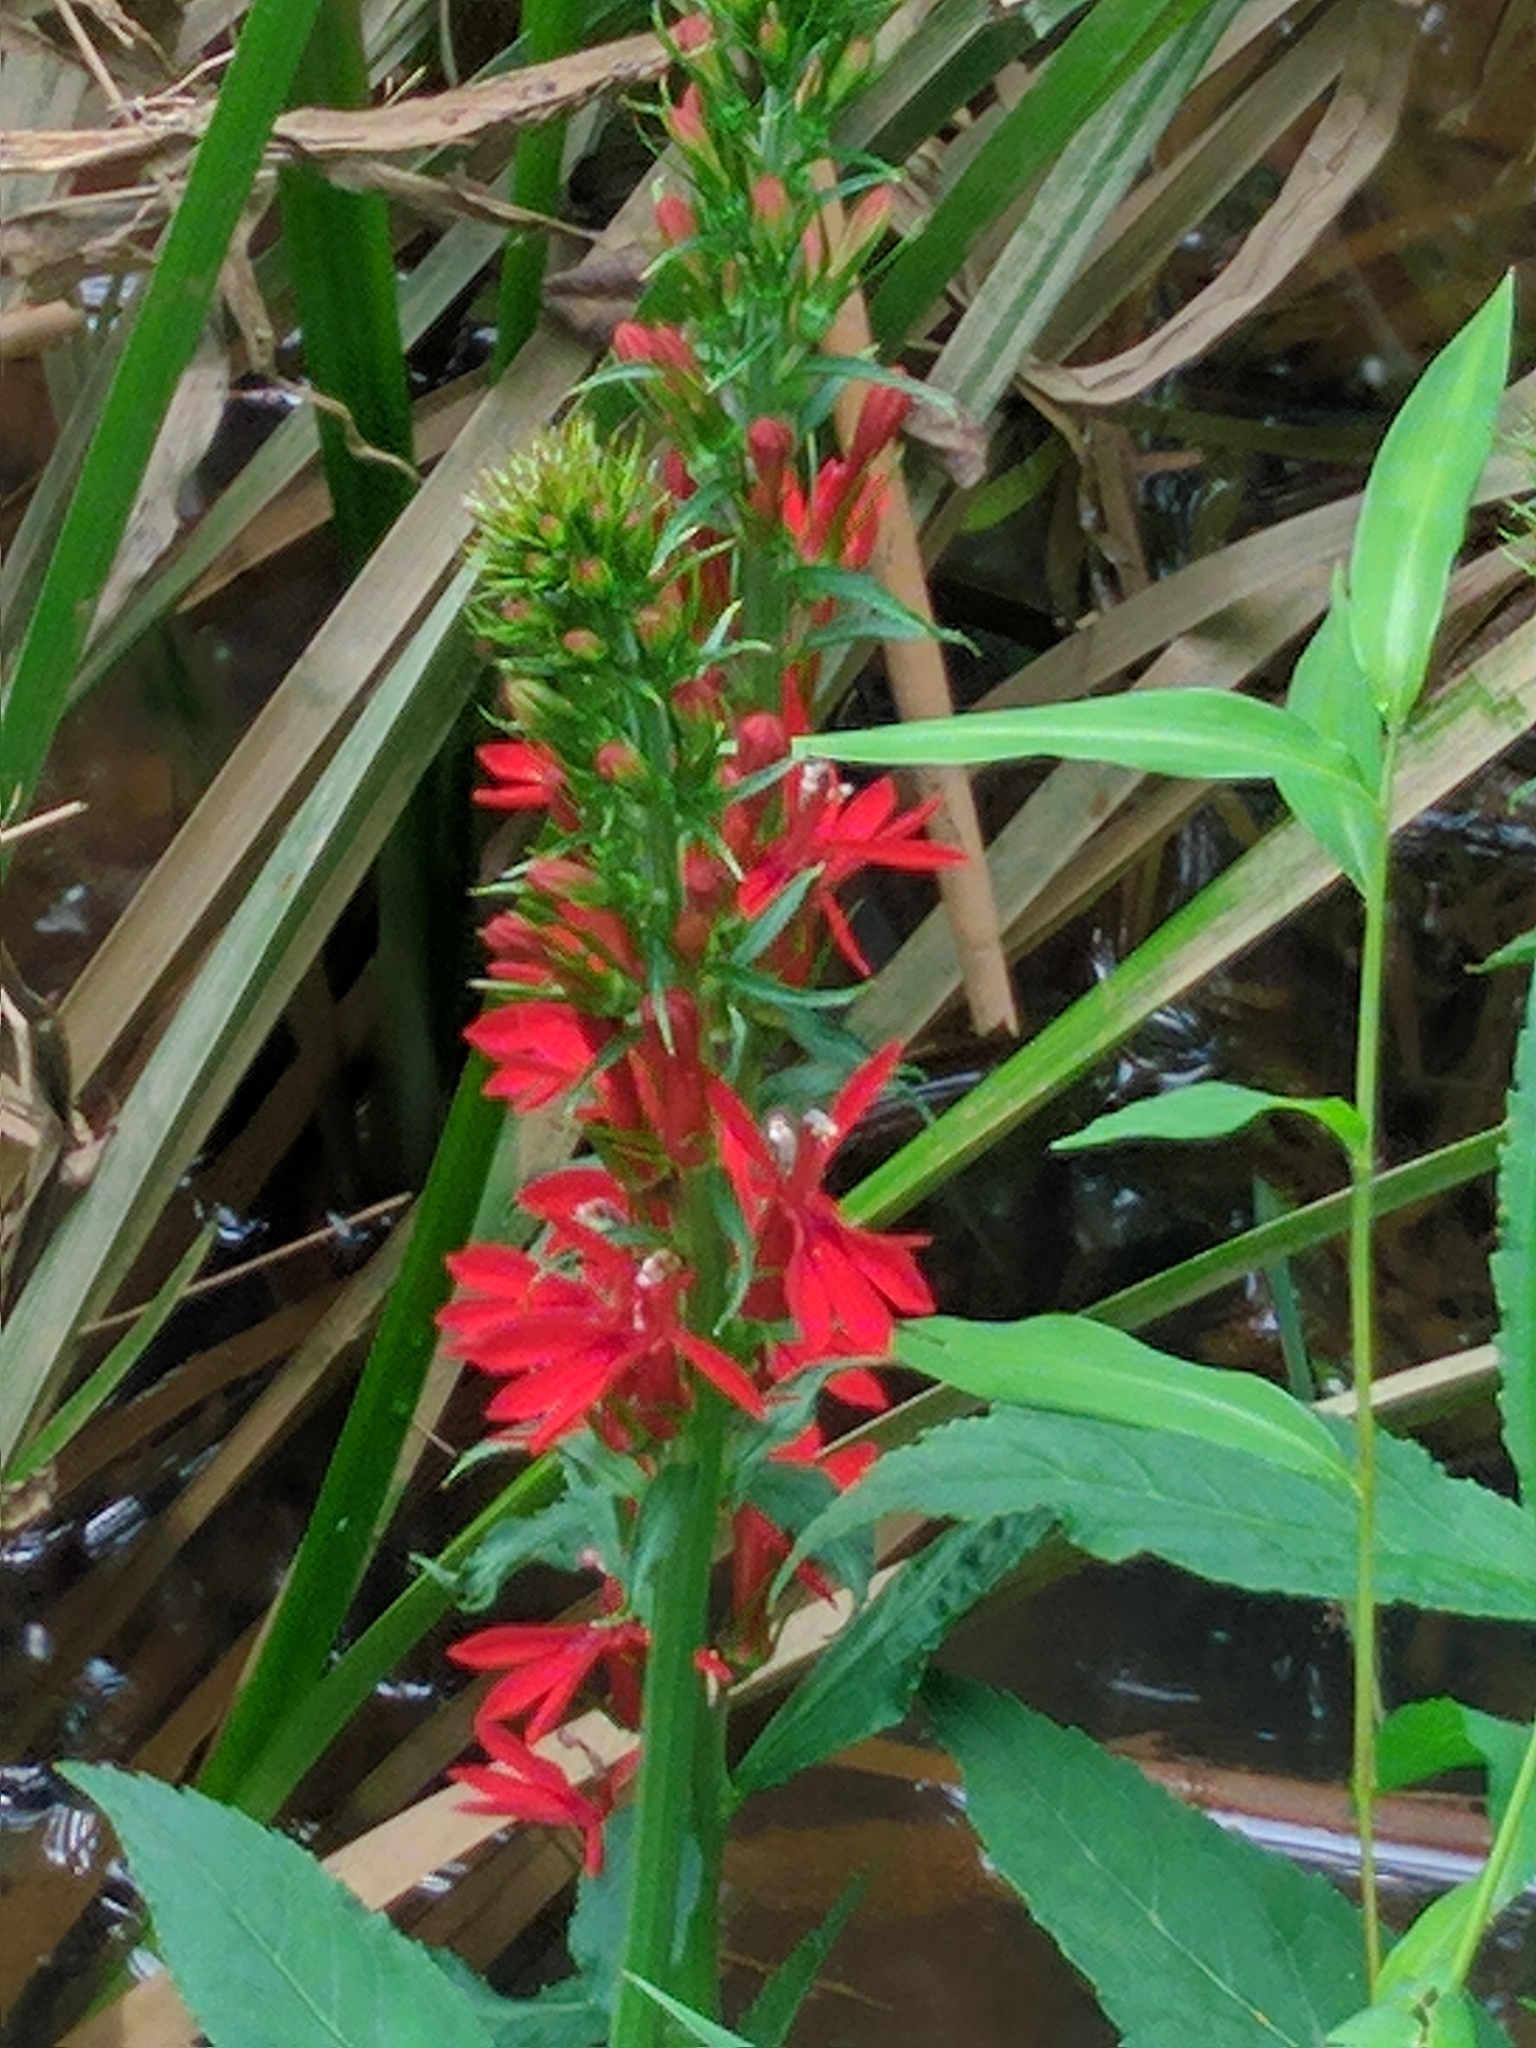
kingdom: Plantae
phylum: Tracheophyta
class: Magnoliopsida
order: Asterales
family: Campanulaceae
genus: Lobelia
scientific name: Lobelia cardinalis
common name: Cardinal flower
